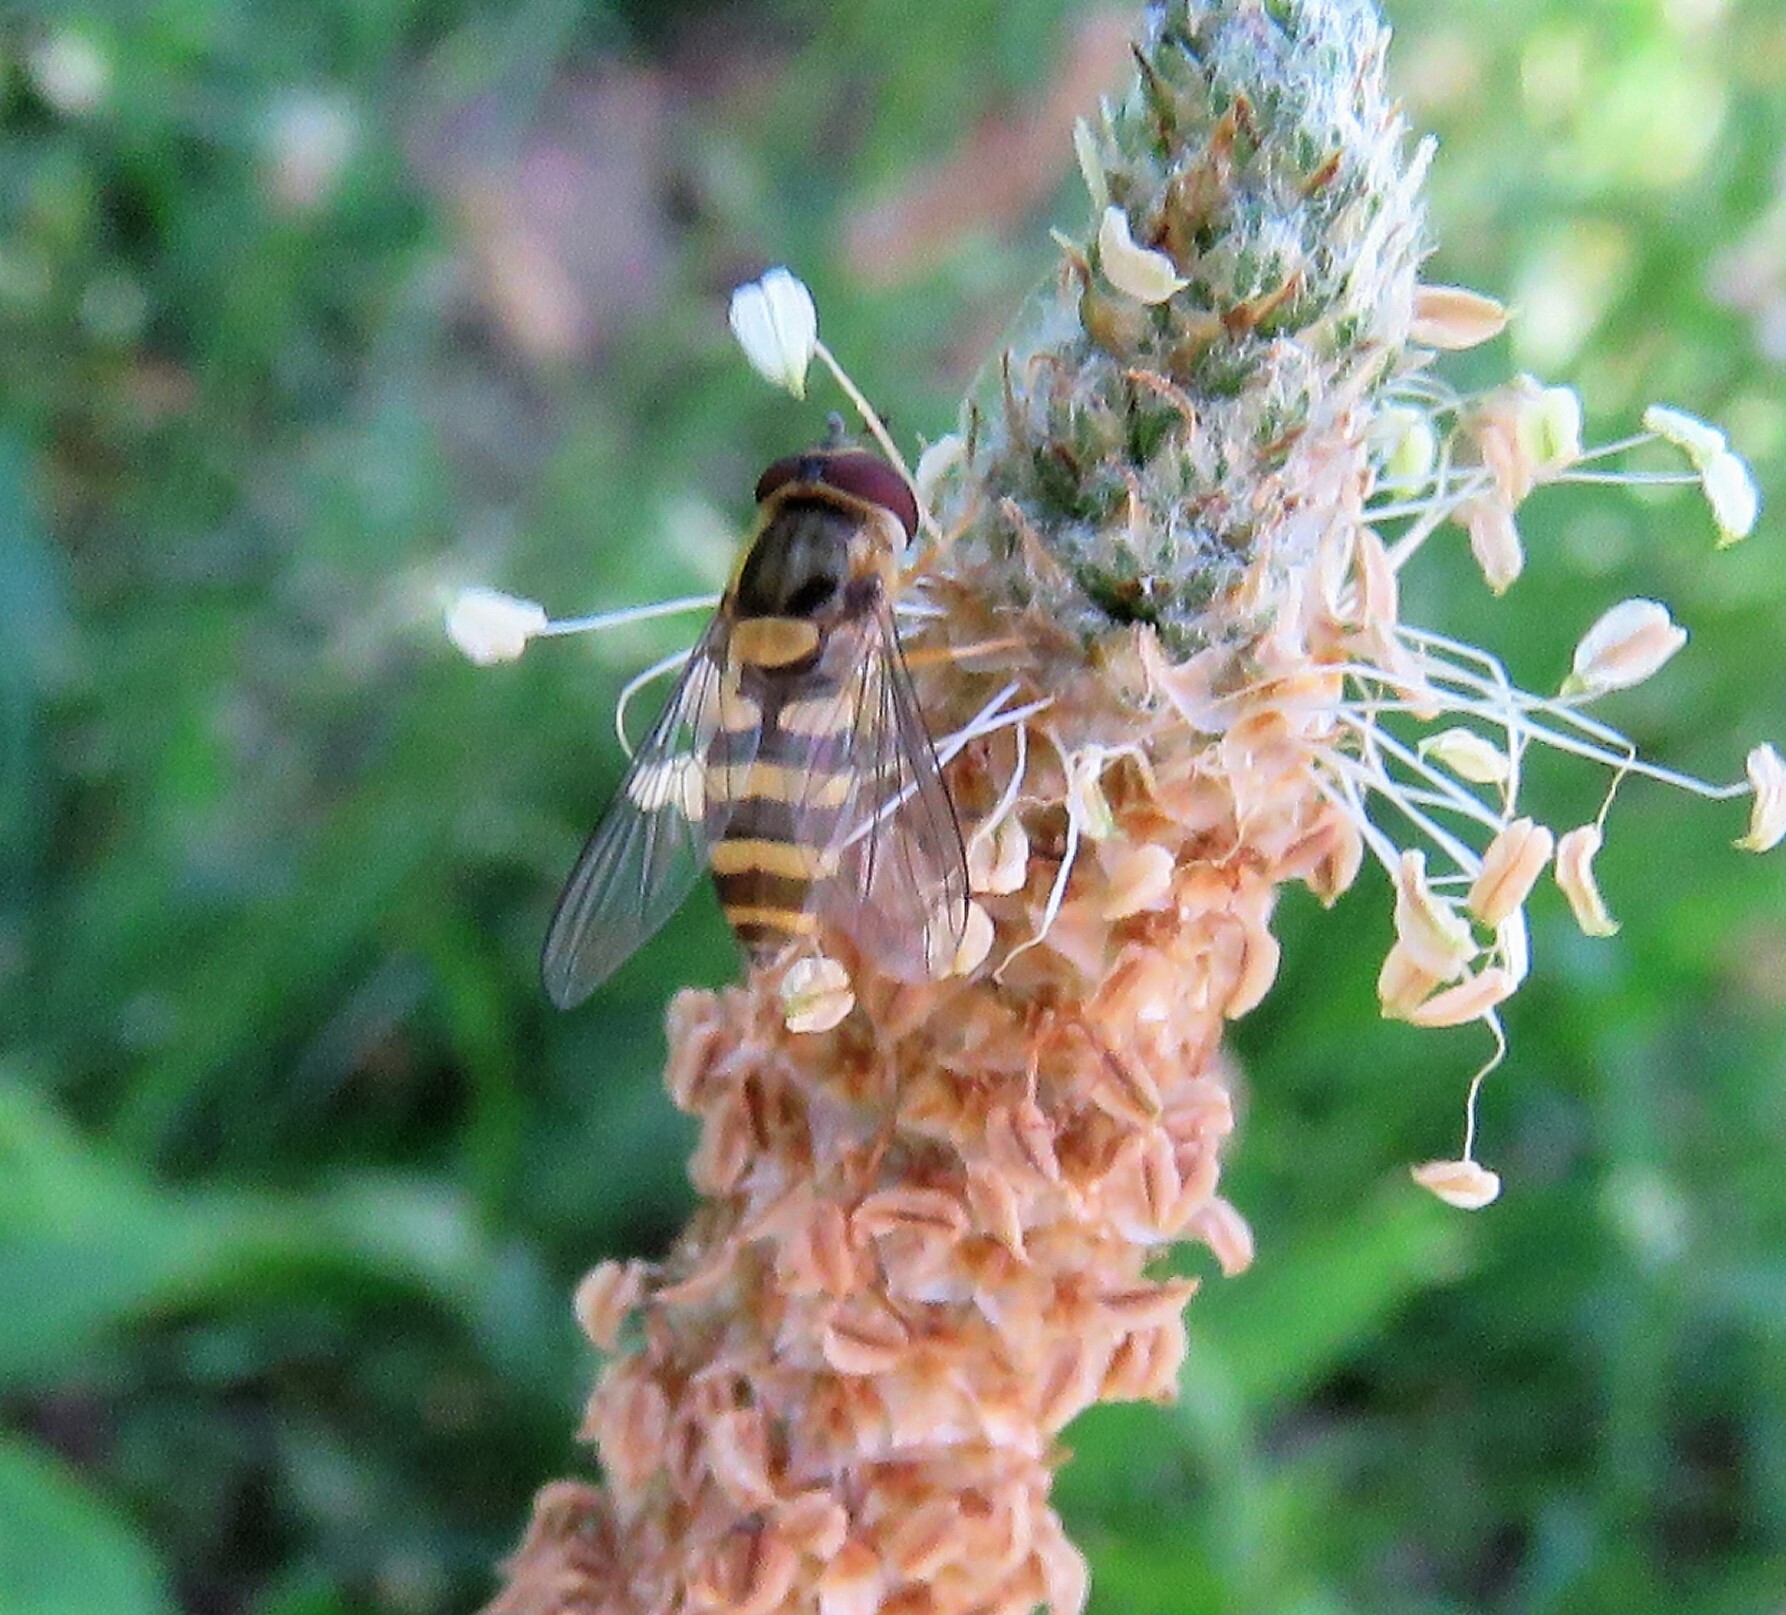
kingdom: Animalia
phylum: Arthropoda
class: Insecta
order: Diptera
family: Syrphidae
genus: Syrphus
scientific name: Syrphus
